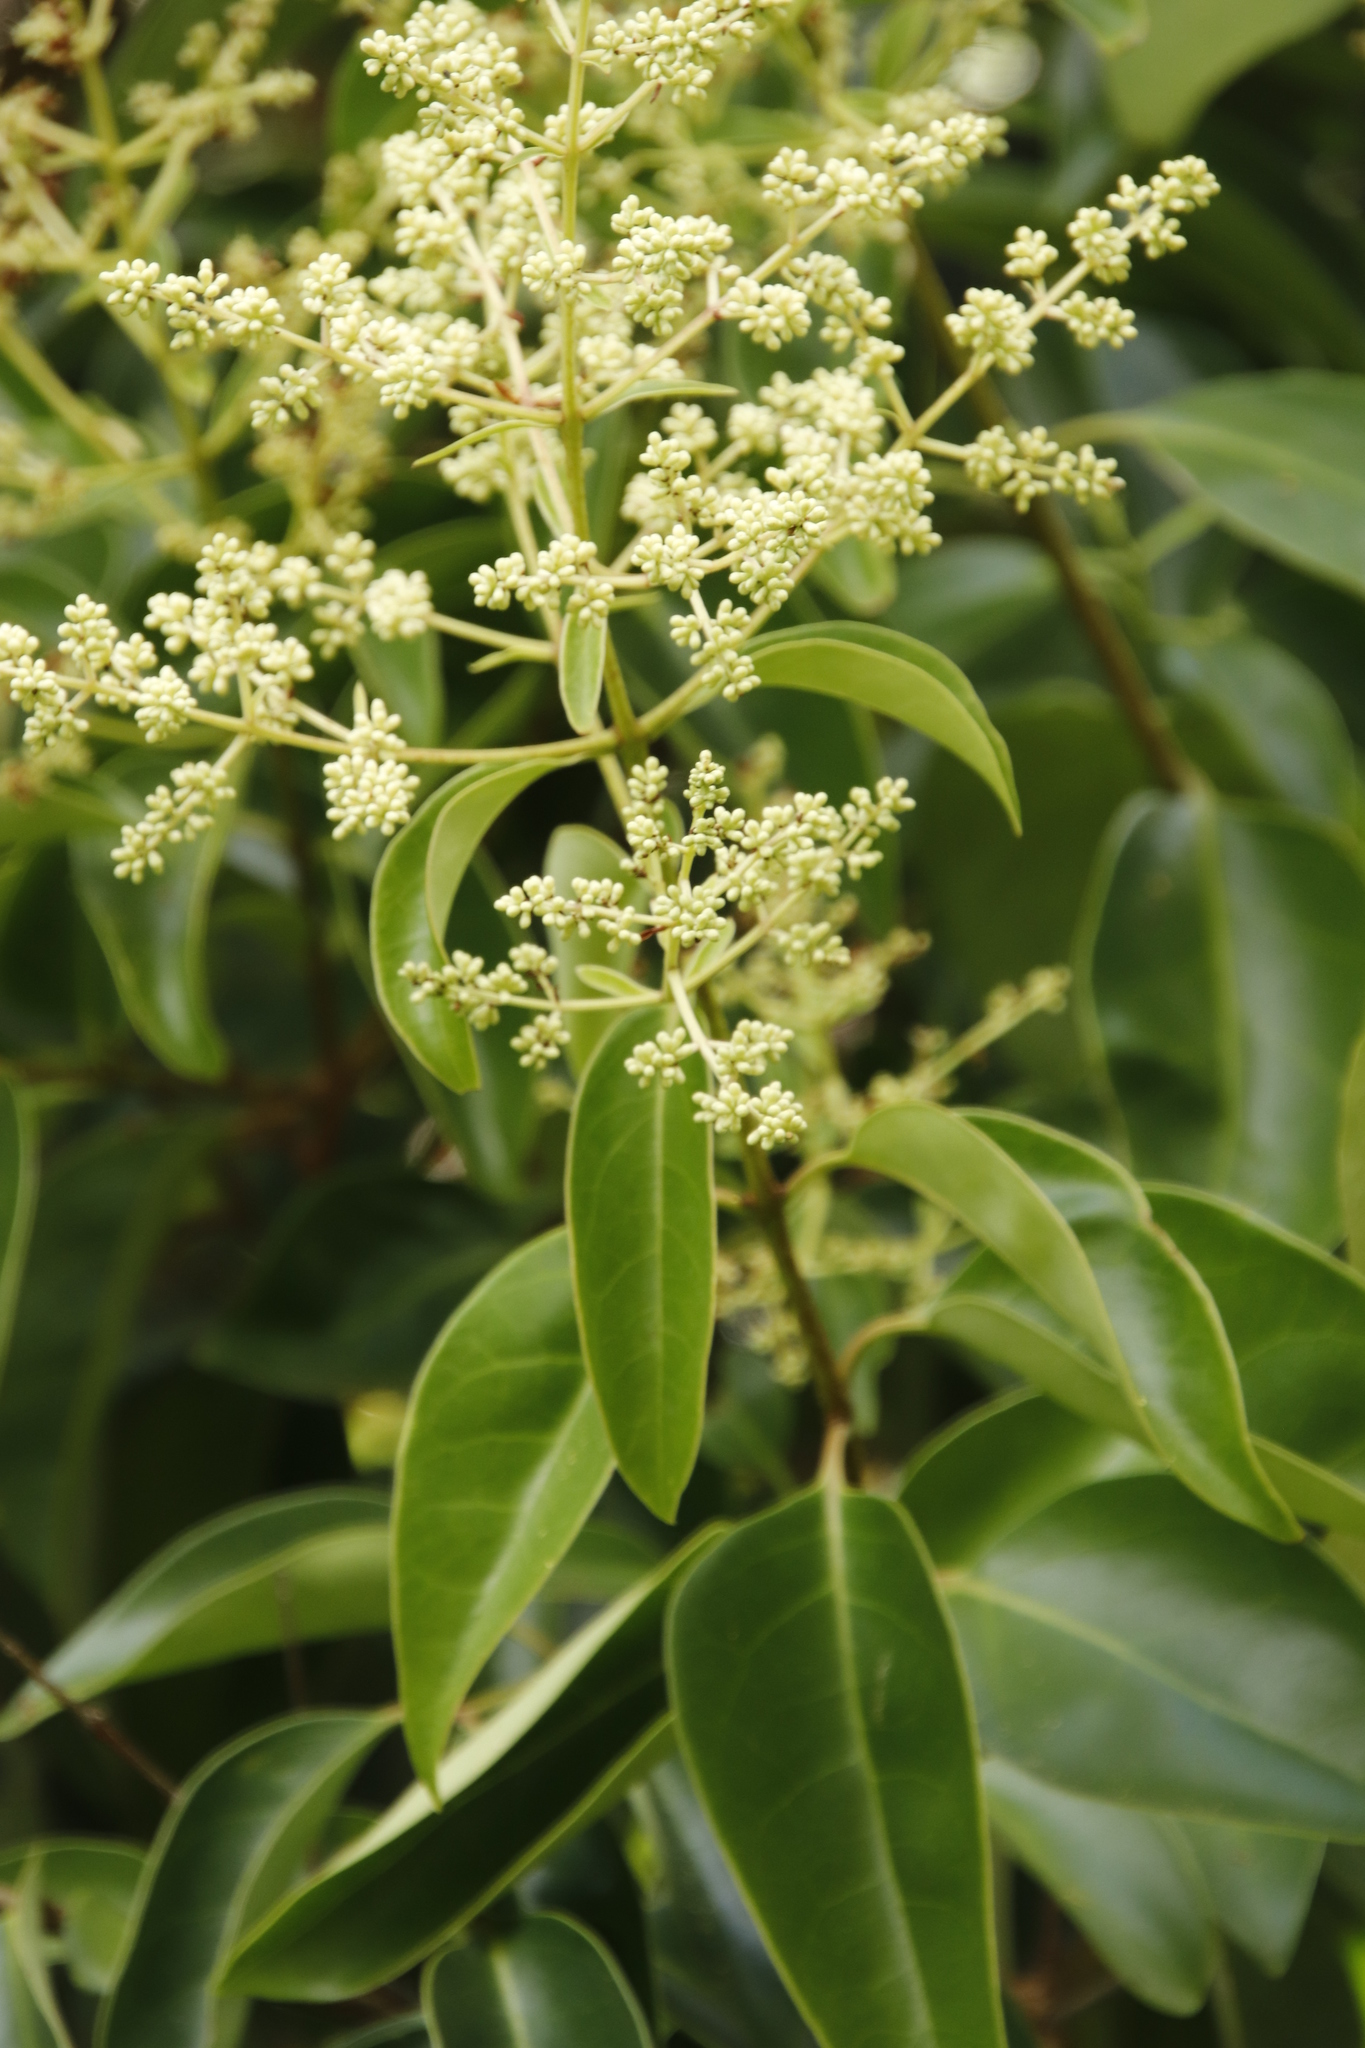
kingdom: Plantae
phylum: Tracheophyta
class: Magnoliopsida
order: Lamiales
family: Oleaceae
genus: Ligustrum
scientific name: Ligustrum lucidum
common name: Glossy privet
